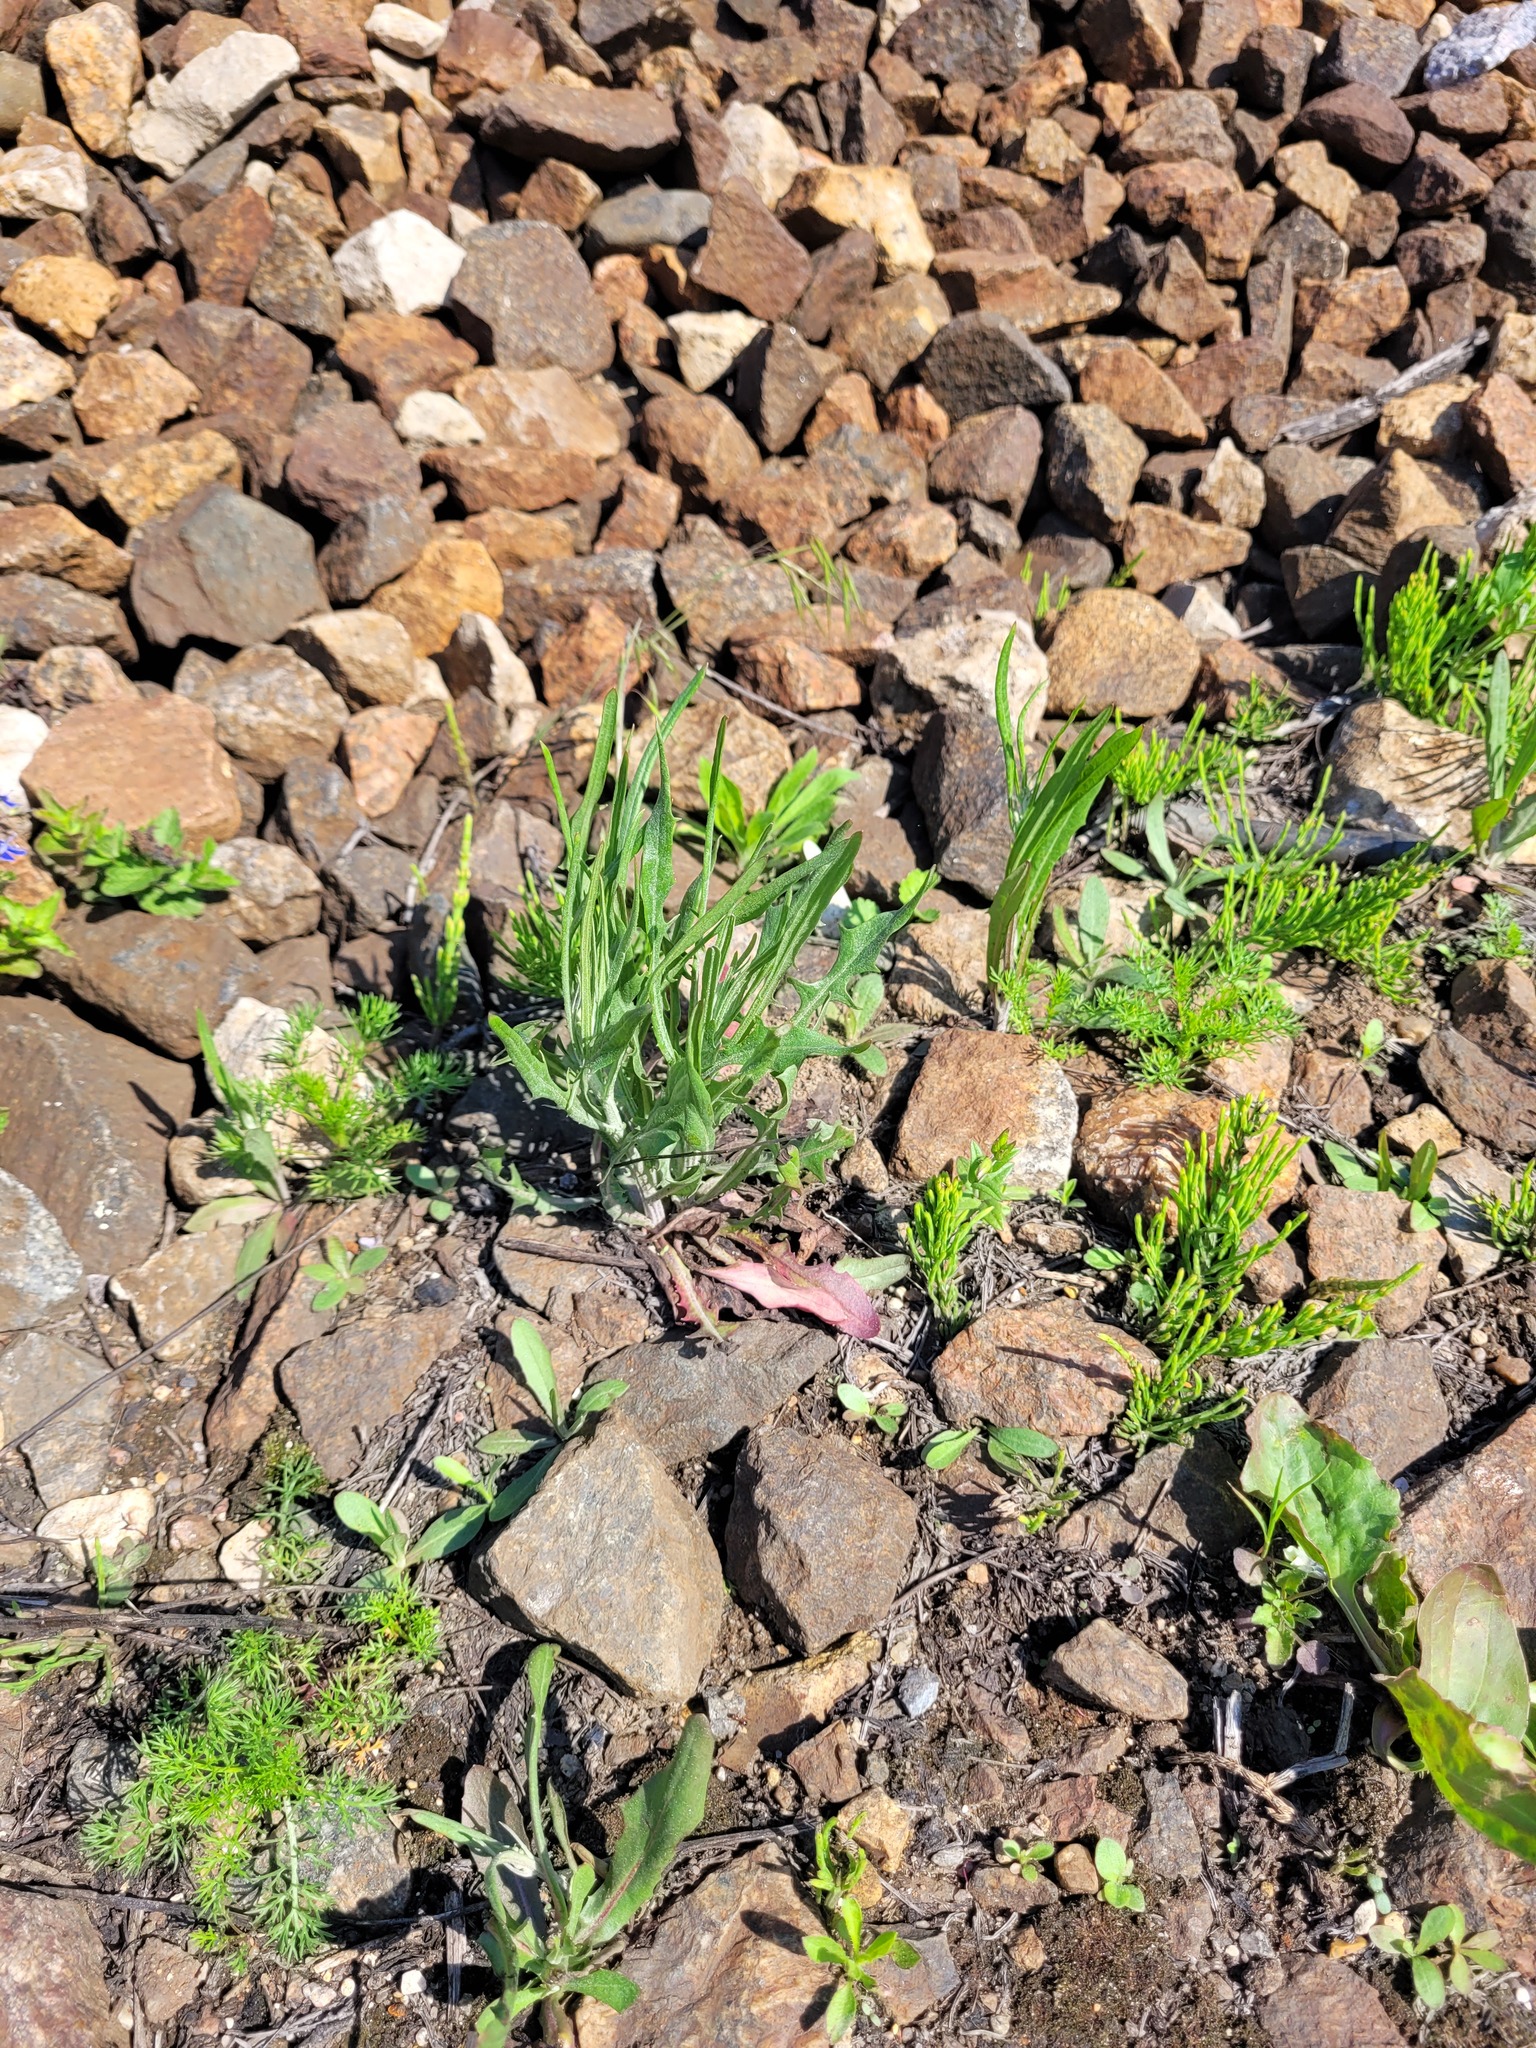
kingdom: Plantae
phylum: Tracheophyta
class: Magnoliopsida
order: Asterales
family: Asteraceae
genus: Crepis
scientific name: Crepis tectorum
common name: Narrow-leaved hawk's-beard
